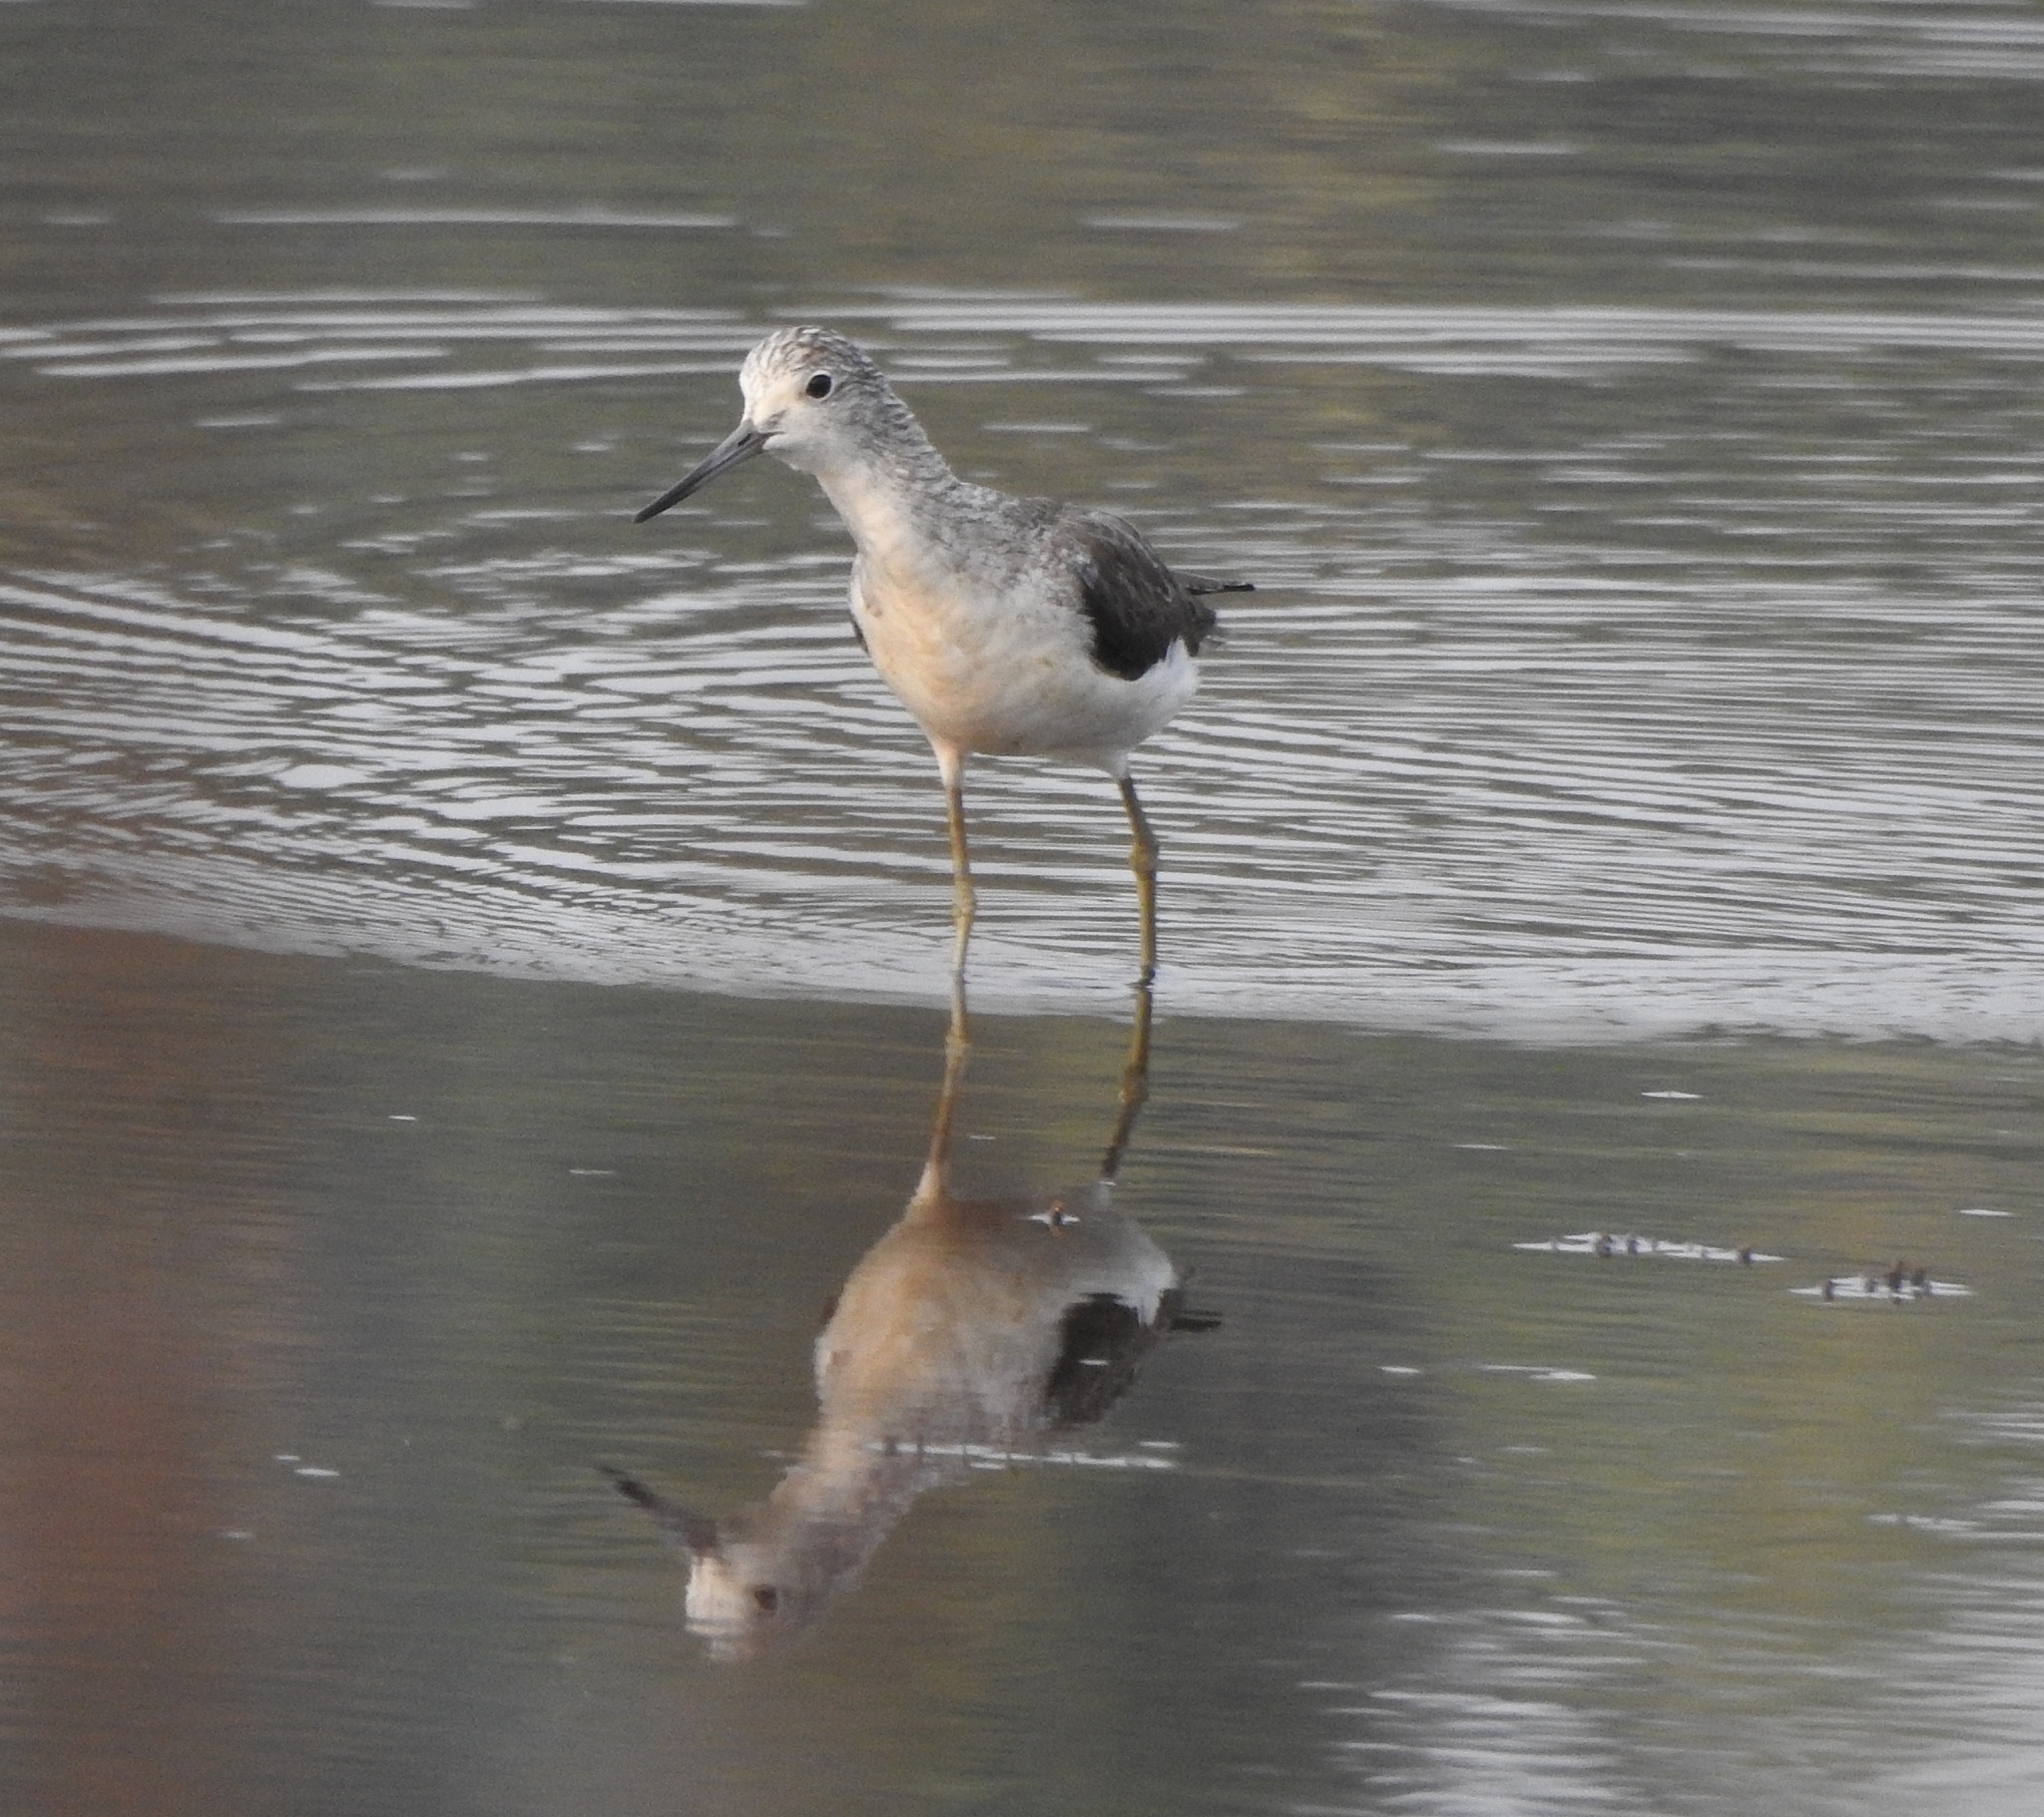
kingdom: Animalia
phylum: Chordata
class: Aves
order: Charadriiformes
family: Scolopacidae
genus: Tringa
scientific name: Tringa nebularia
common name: Common greenshank
